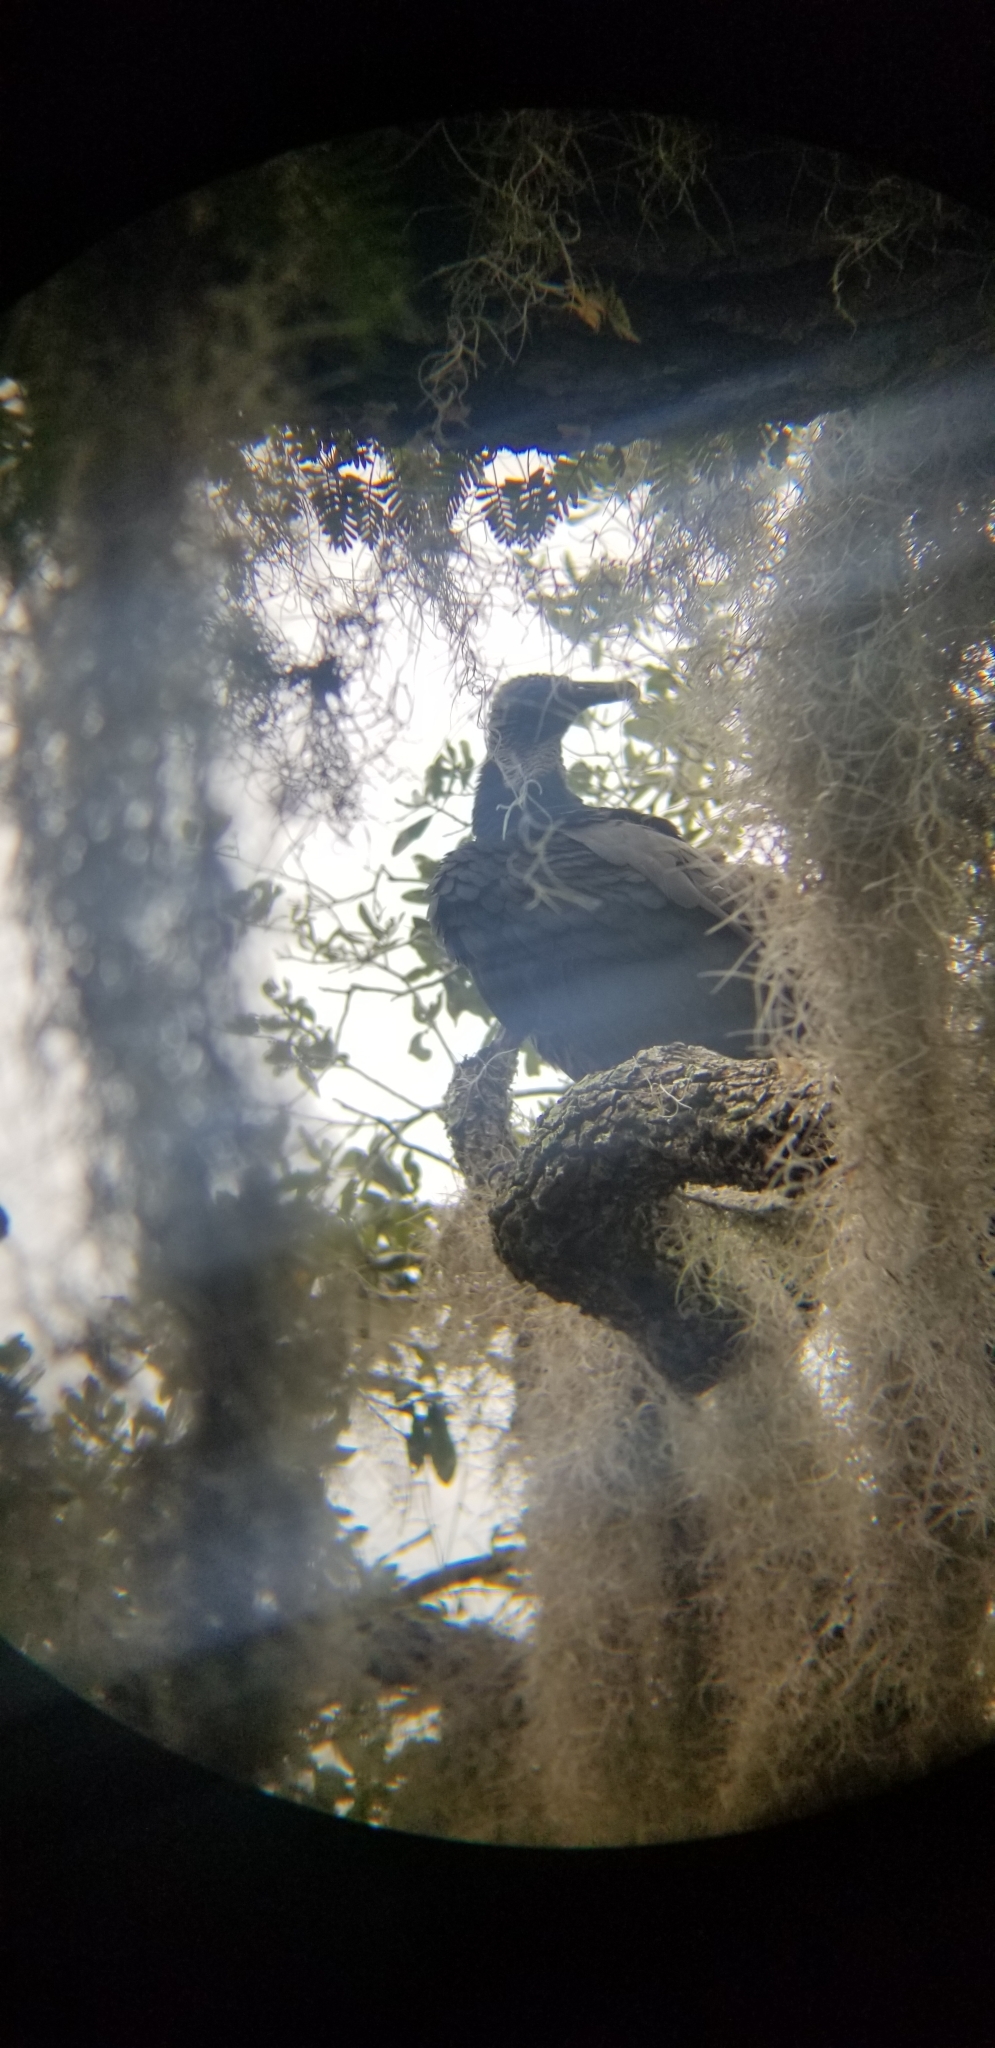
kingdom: Animalia
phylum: Chordata
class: Aves
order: Accipitriformes
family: Cathartidae
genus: Coragyps
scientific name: Coragyps atratus
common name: Black vulture
